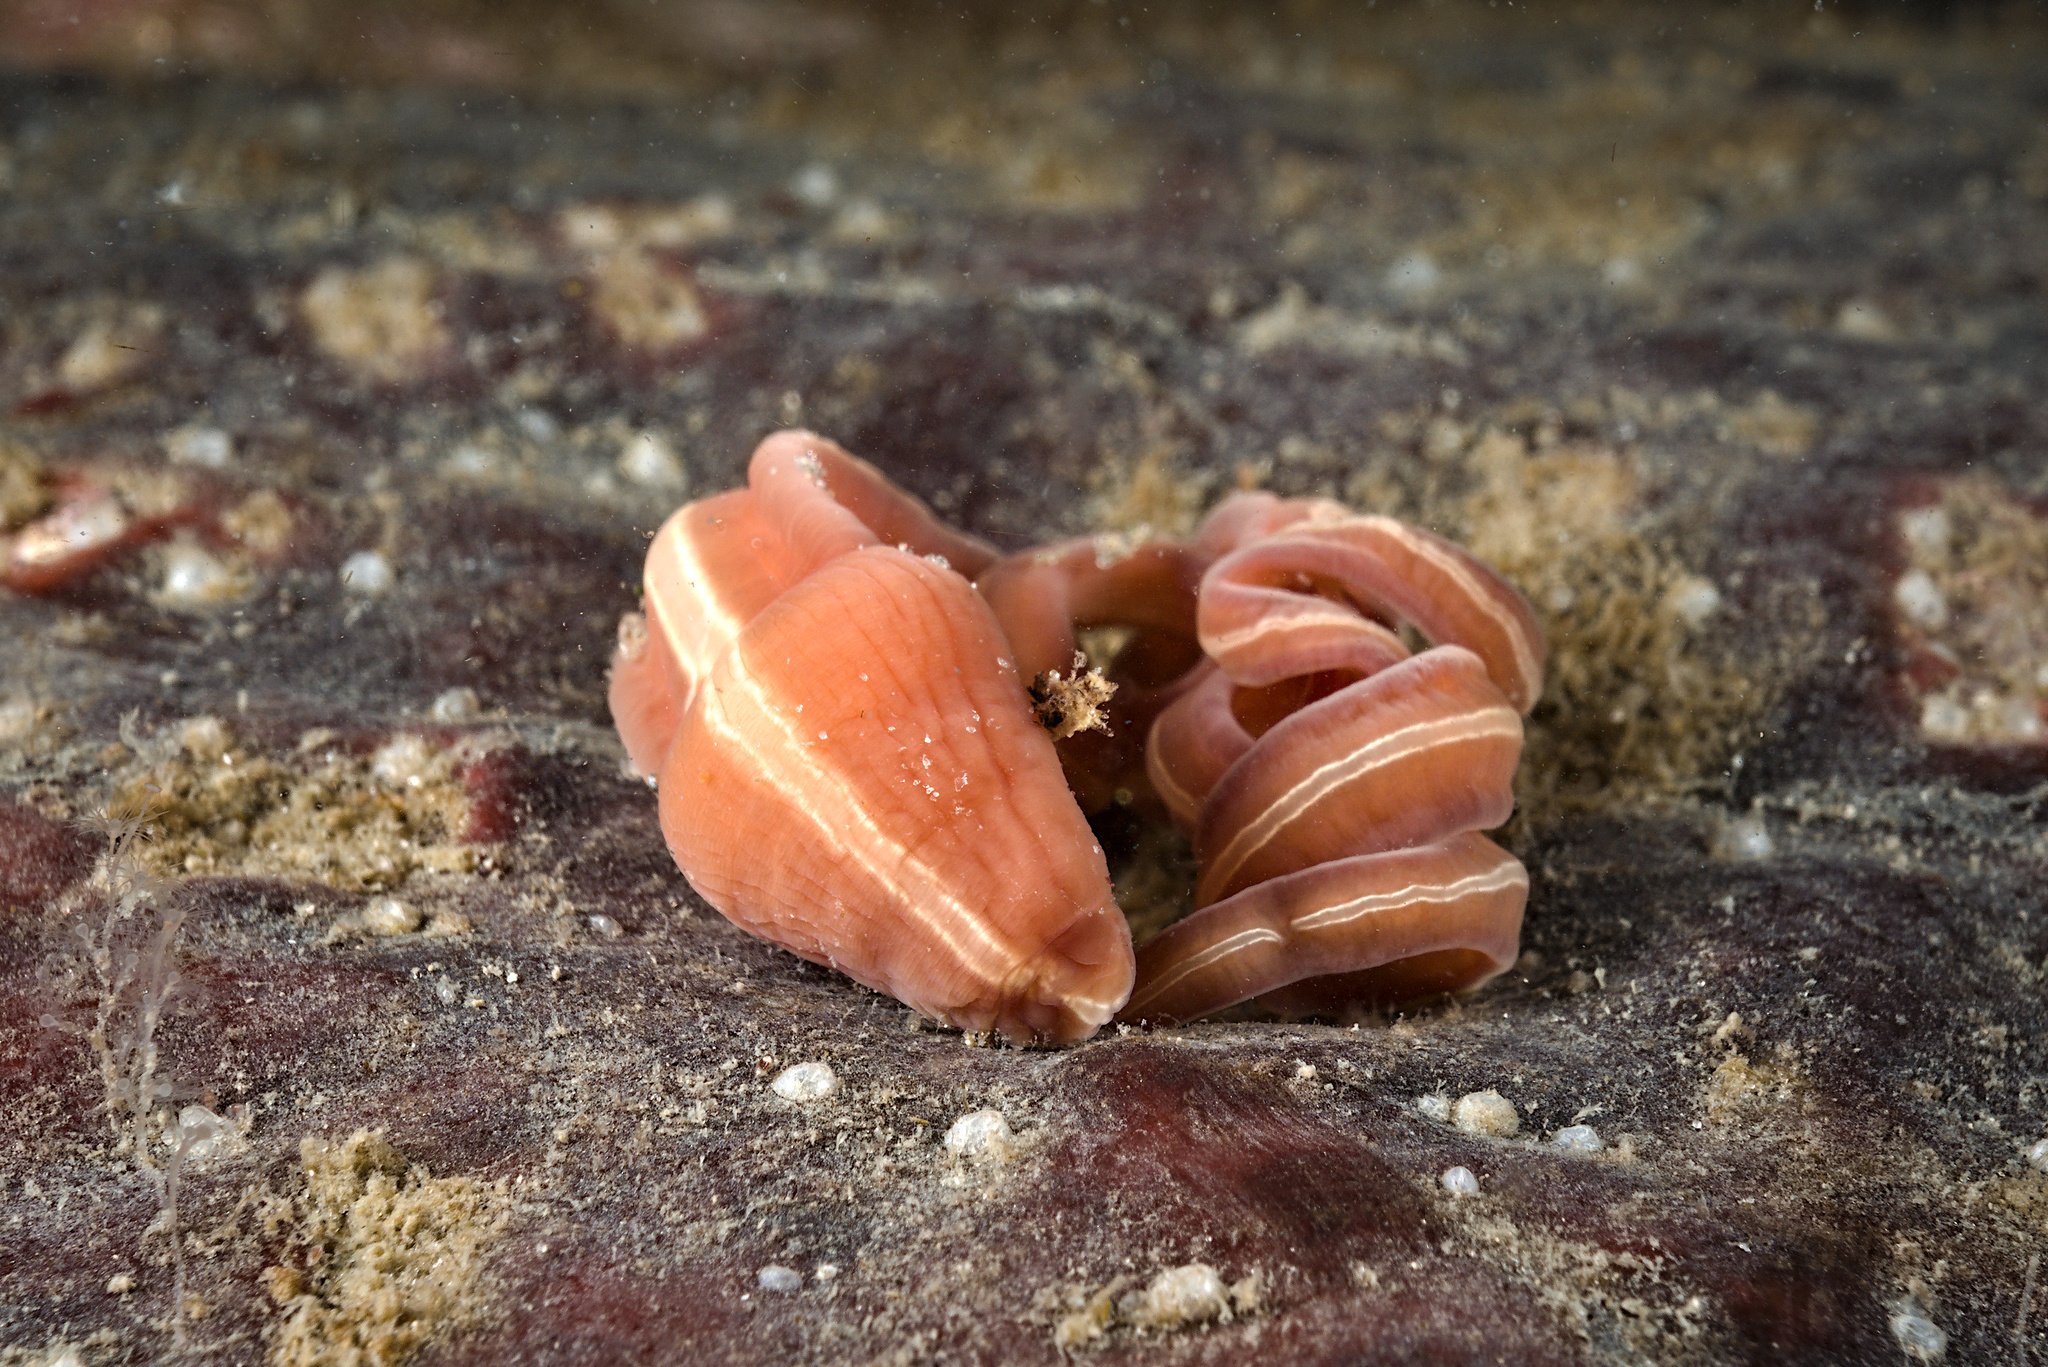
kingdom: Animalia
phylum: Nemertea
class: Pilidiophora
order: Heteronemertea
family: Lineidae
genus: Siphonenteron
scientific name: Siphonenteron bilineatum
